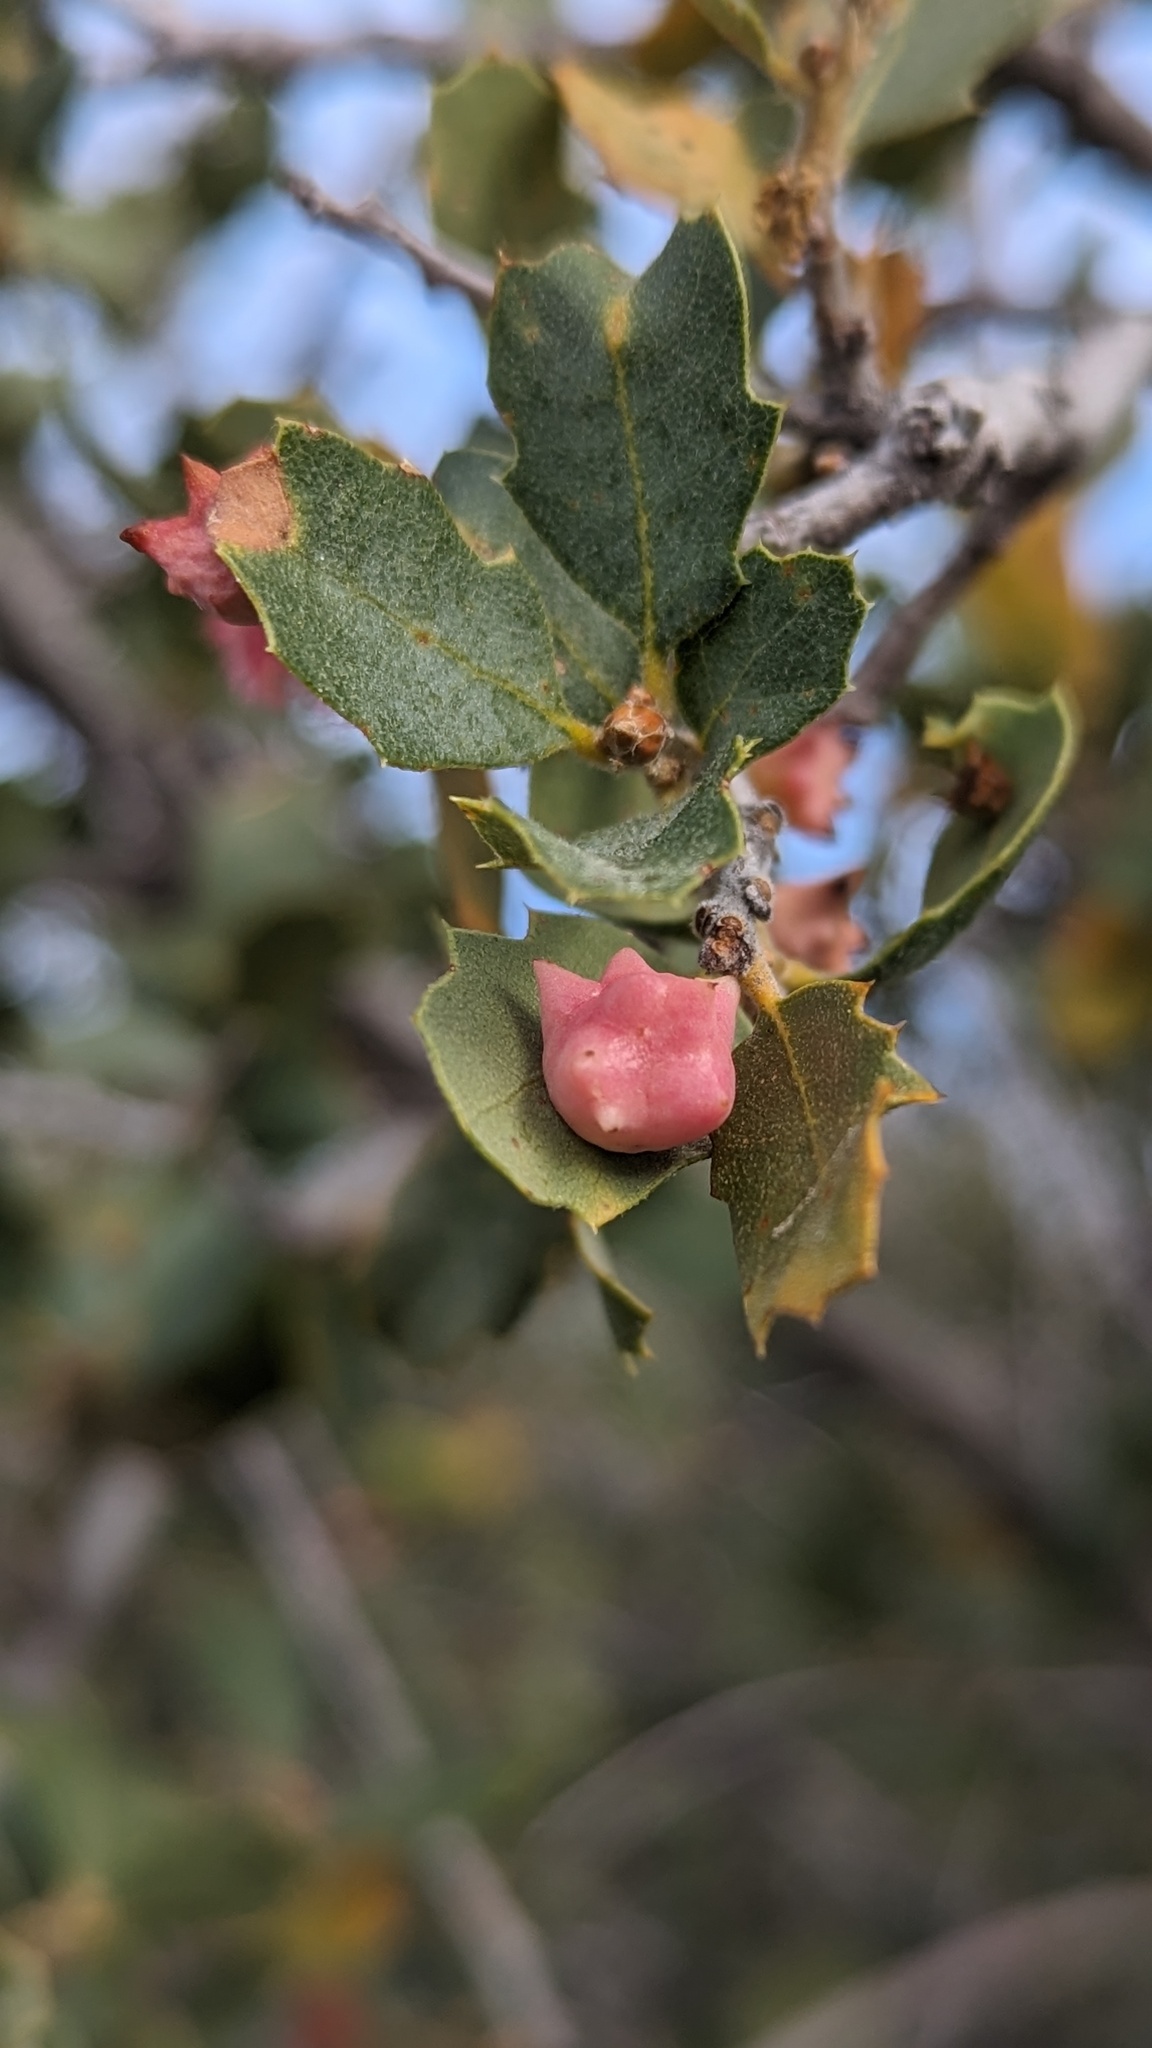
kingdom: Animalia
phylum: Arthropoda
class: Insecta
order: Hymenoptera
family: Cynipidae
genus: Cynips
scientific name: Cynips douglasi
